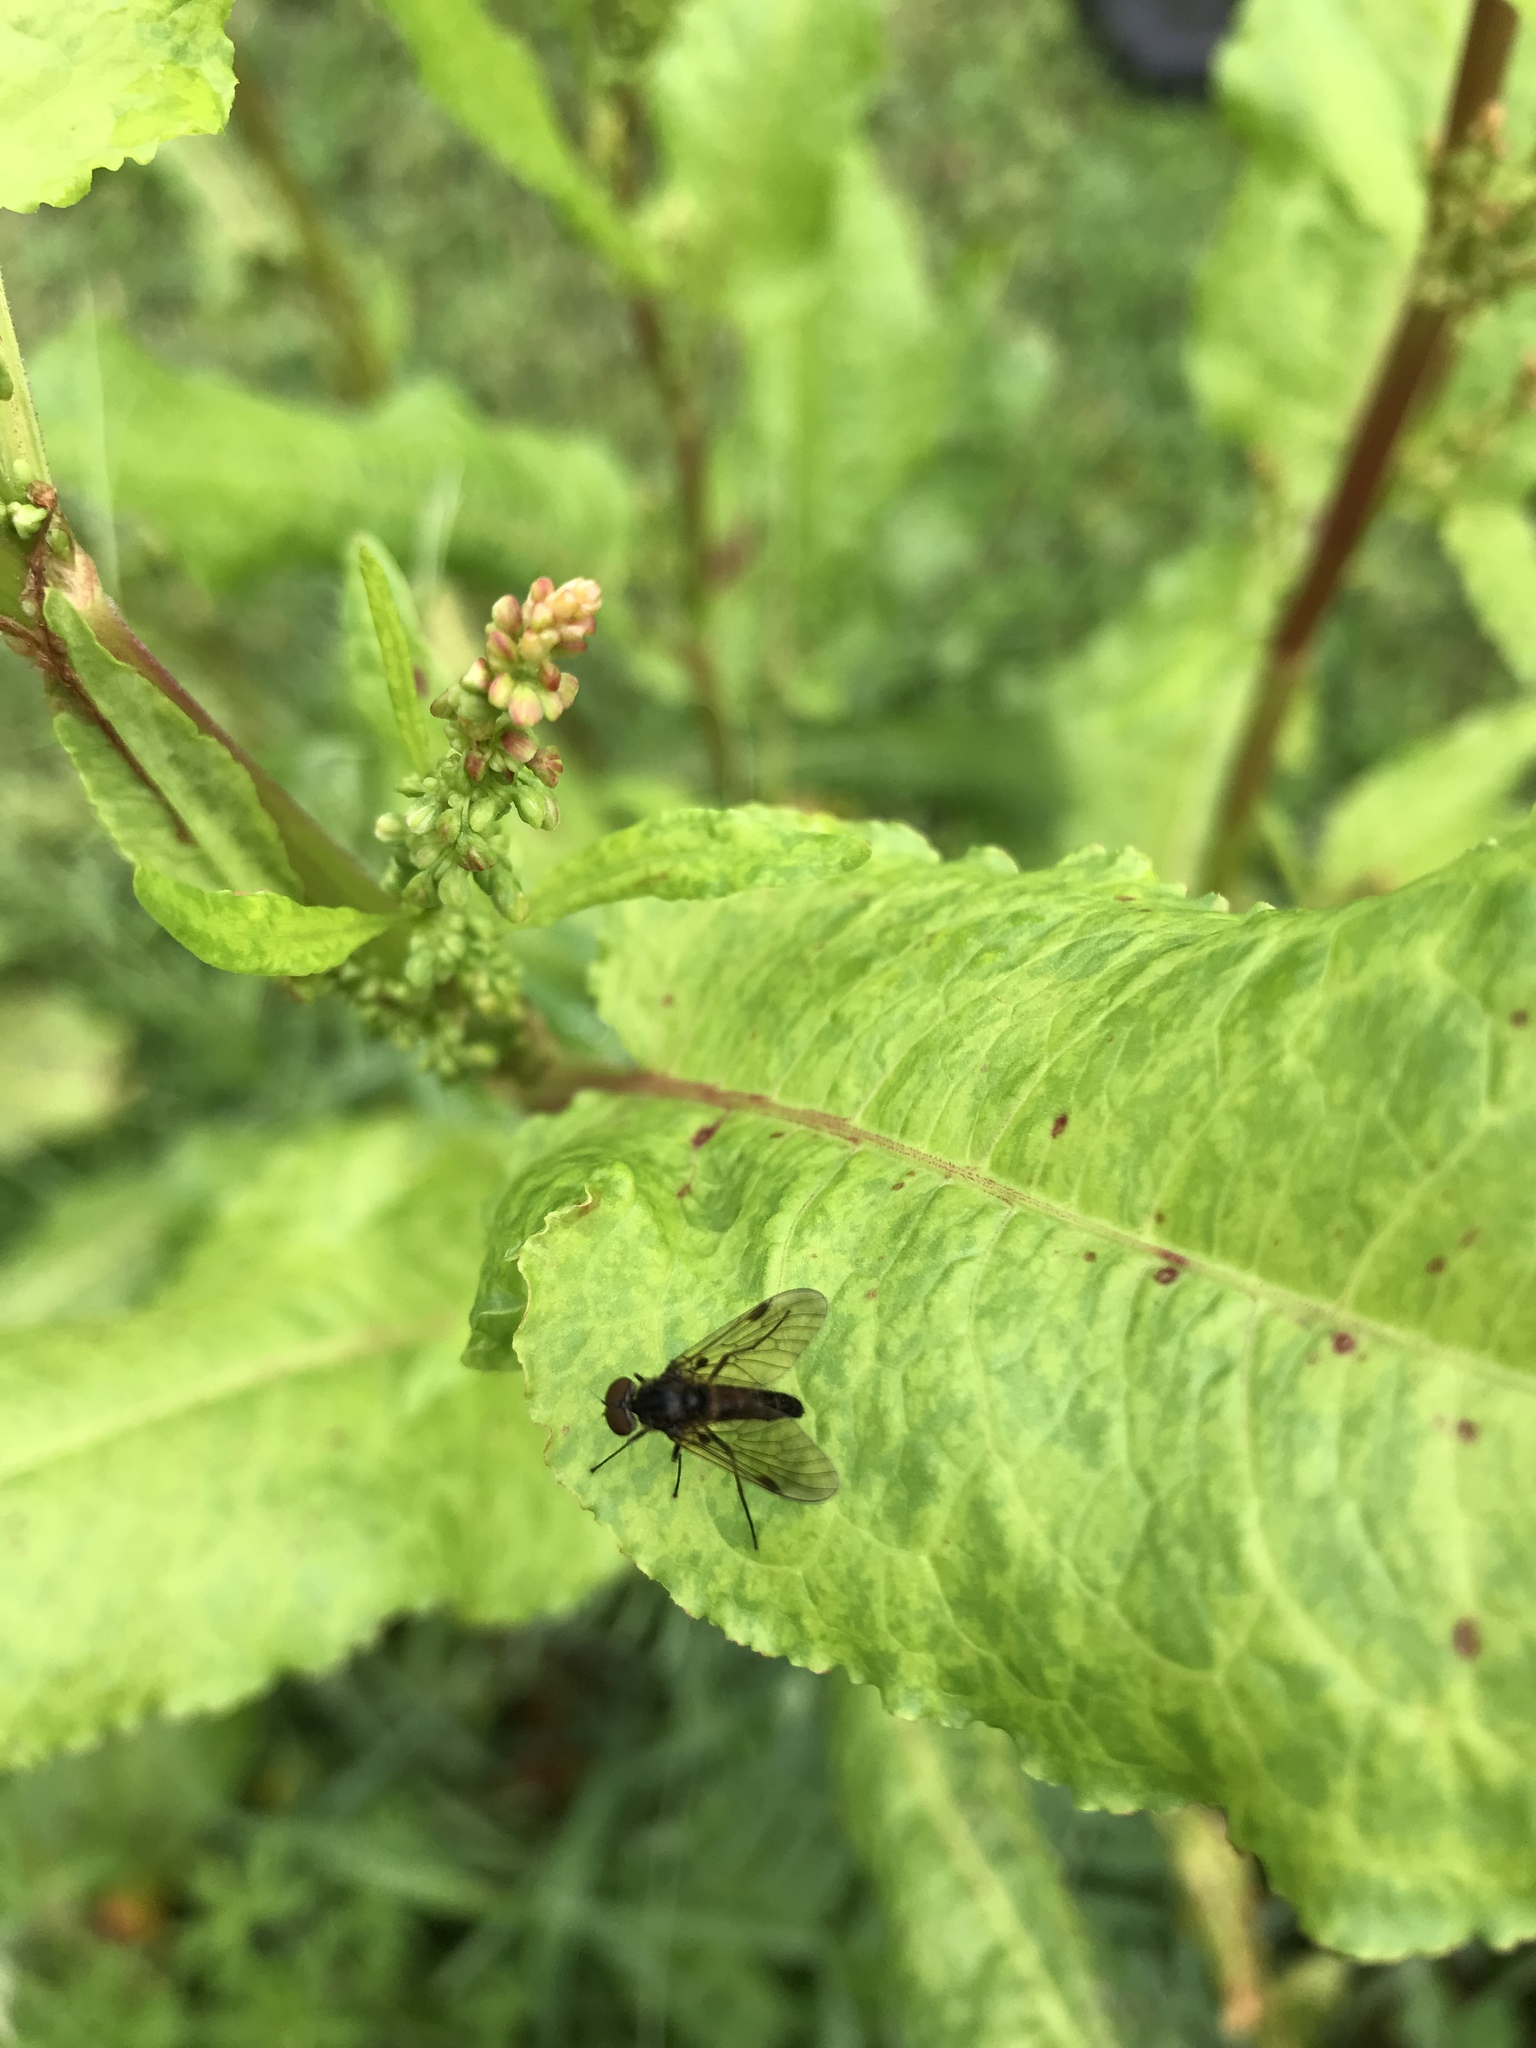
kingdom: Animalia
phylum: Arthropoda
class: Insecta
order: Diptera
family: Rhagionidae
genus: Chrysopilus
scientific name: Chrysopilus cristatus
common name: Black snipefly
